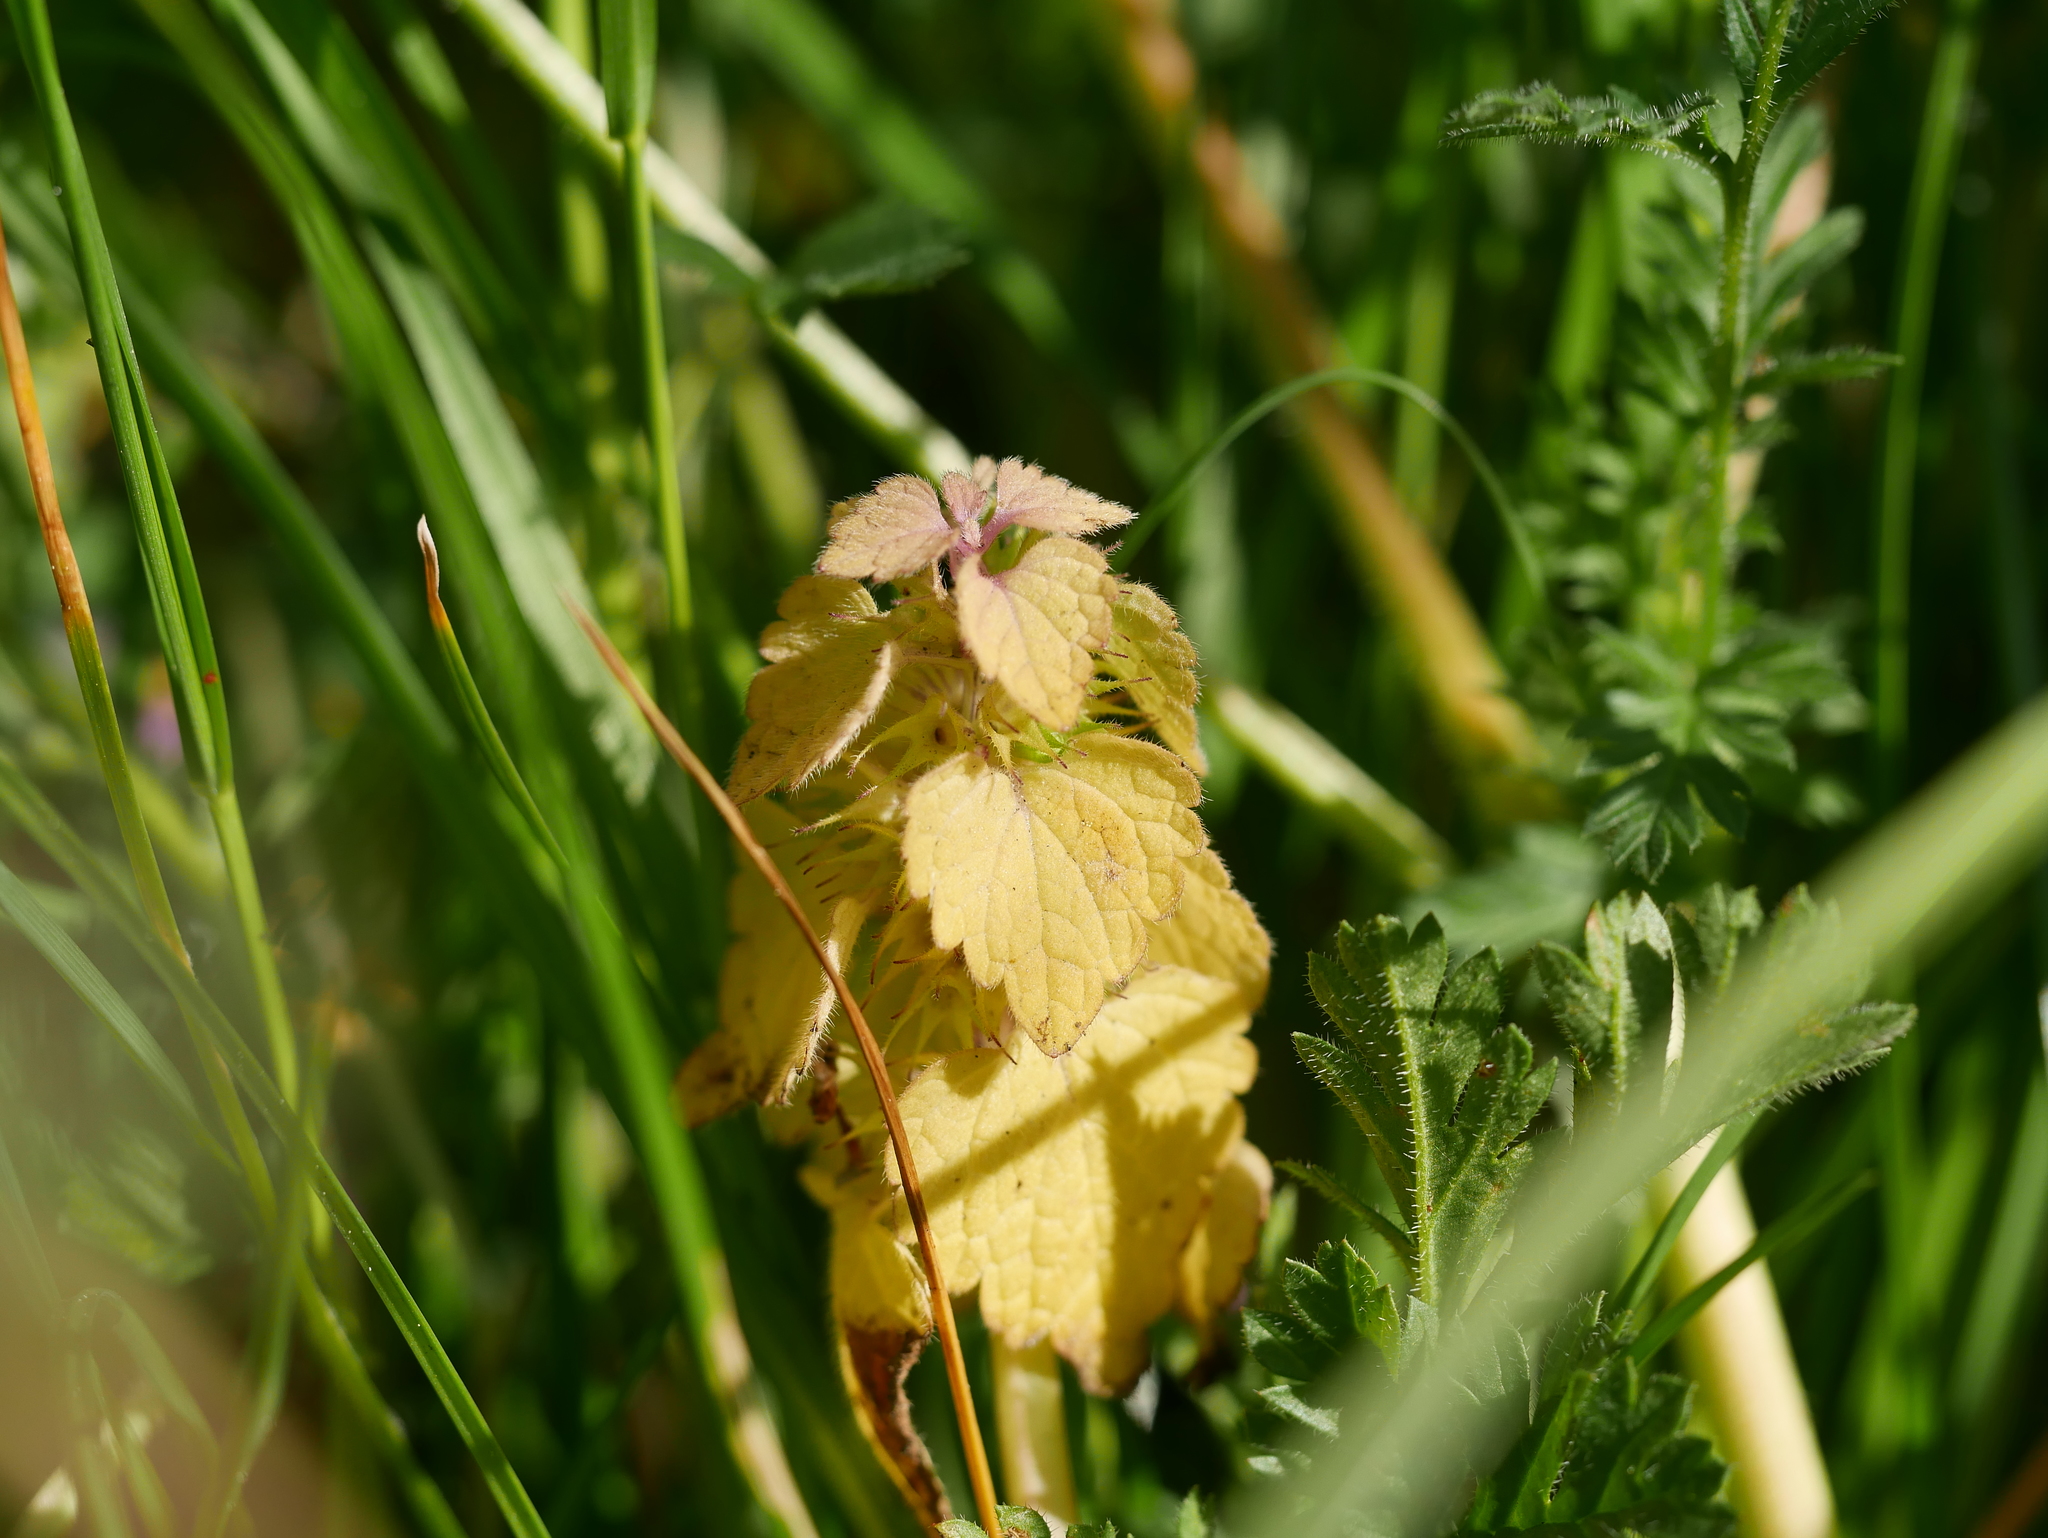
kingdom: Plantae
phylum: Tracheophyta
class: Magnoliopsida
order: Lamiales
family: Lamiaceae
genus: Lamium
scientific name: Lamium purpureum
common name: Red dead-nettle
